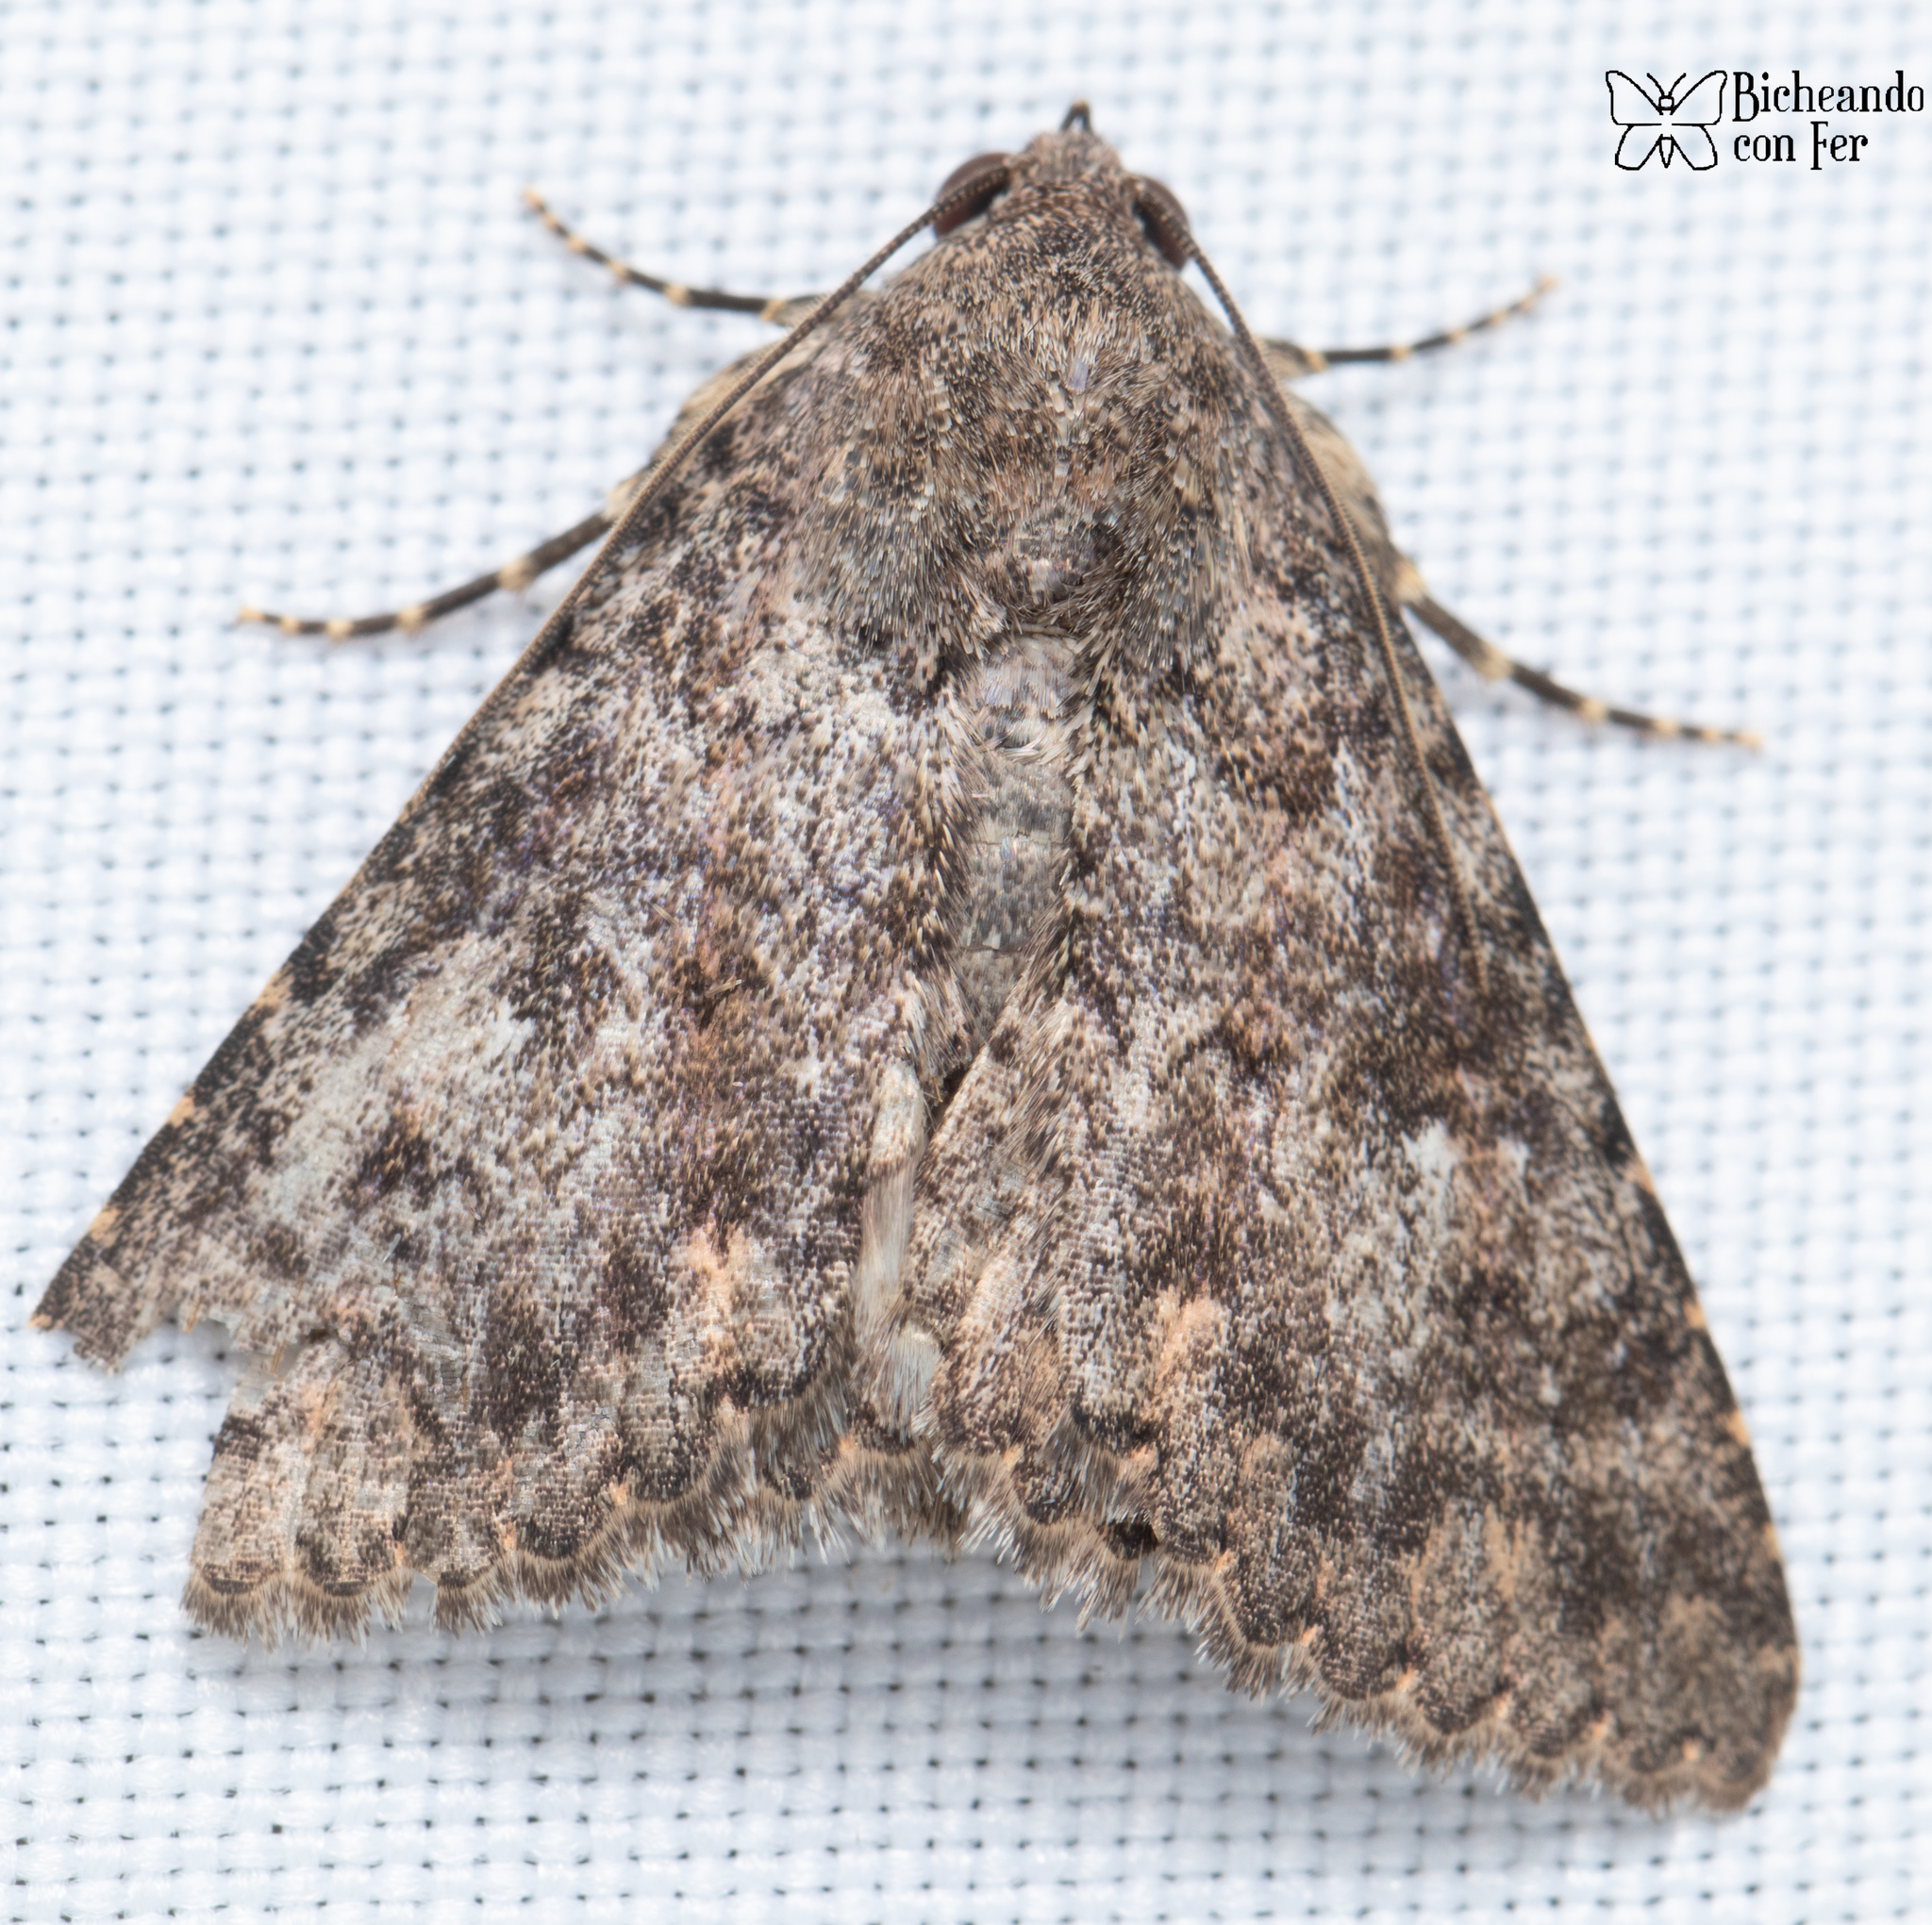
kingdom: Animalia
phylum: Arthropoda
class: Insecta
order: Lepidoptera
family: Erebidae
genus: Matigramma
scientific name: Matigramma emmilta
